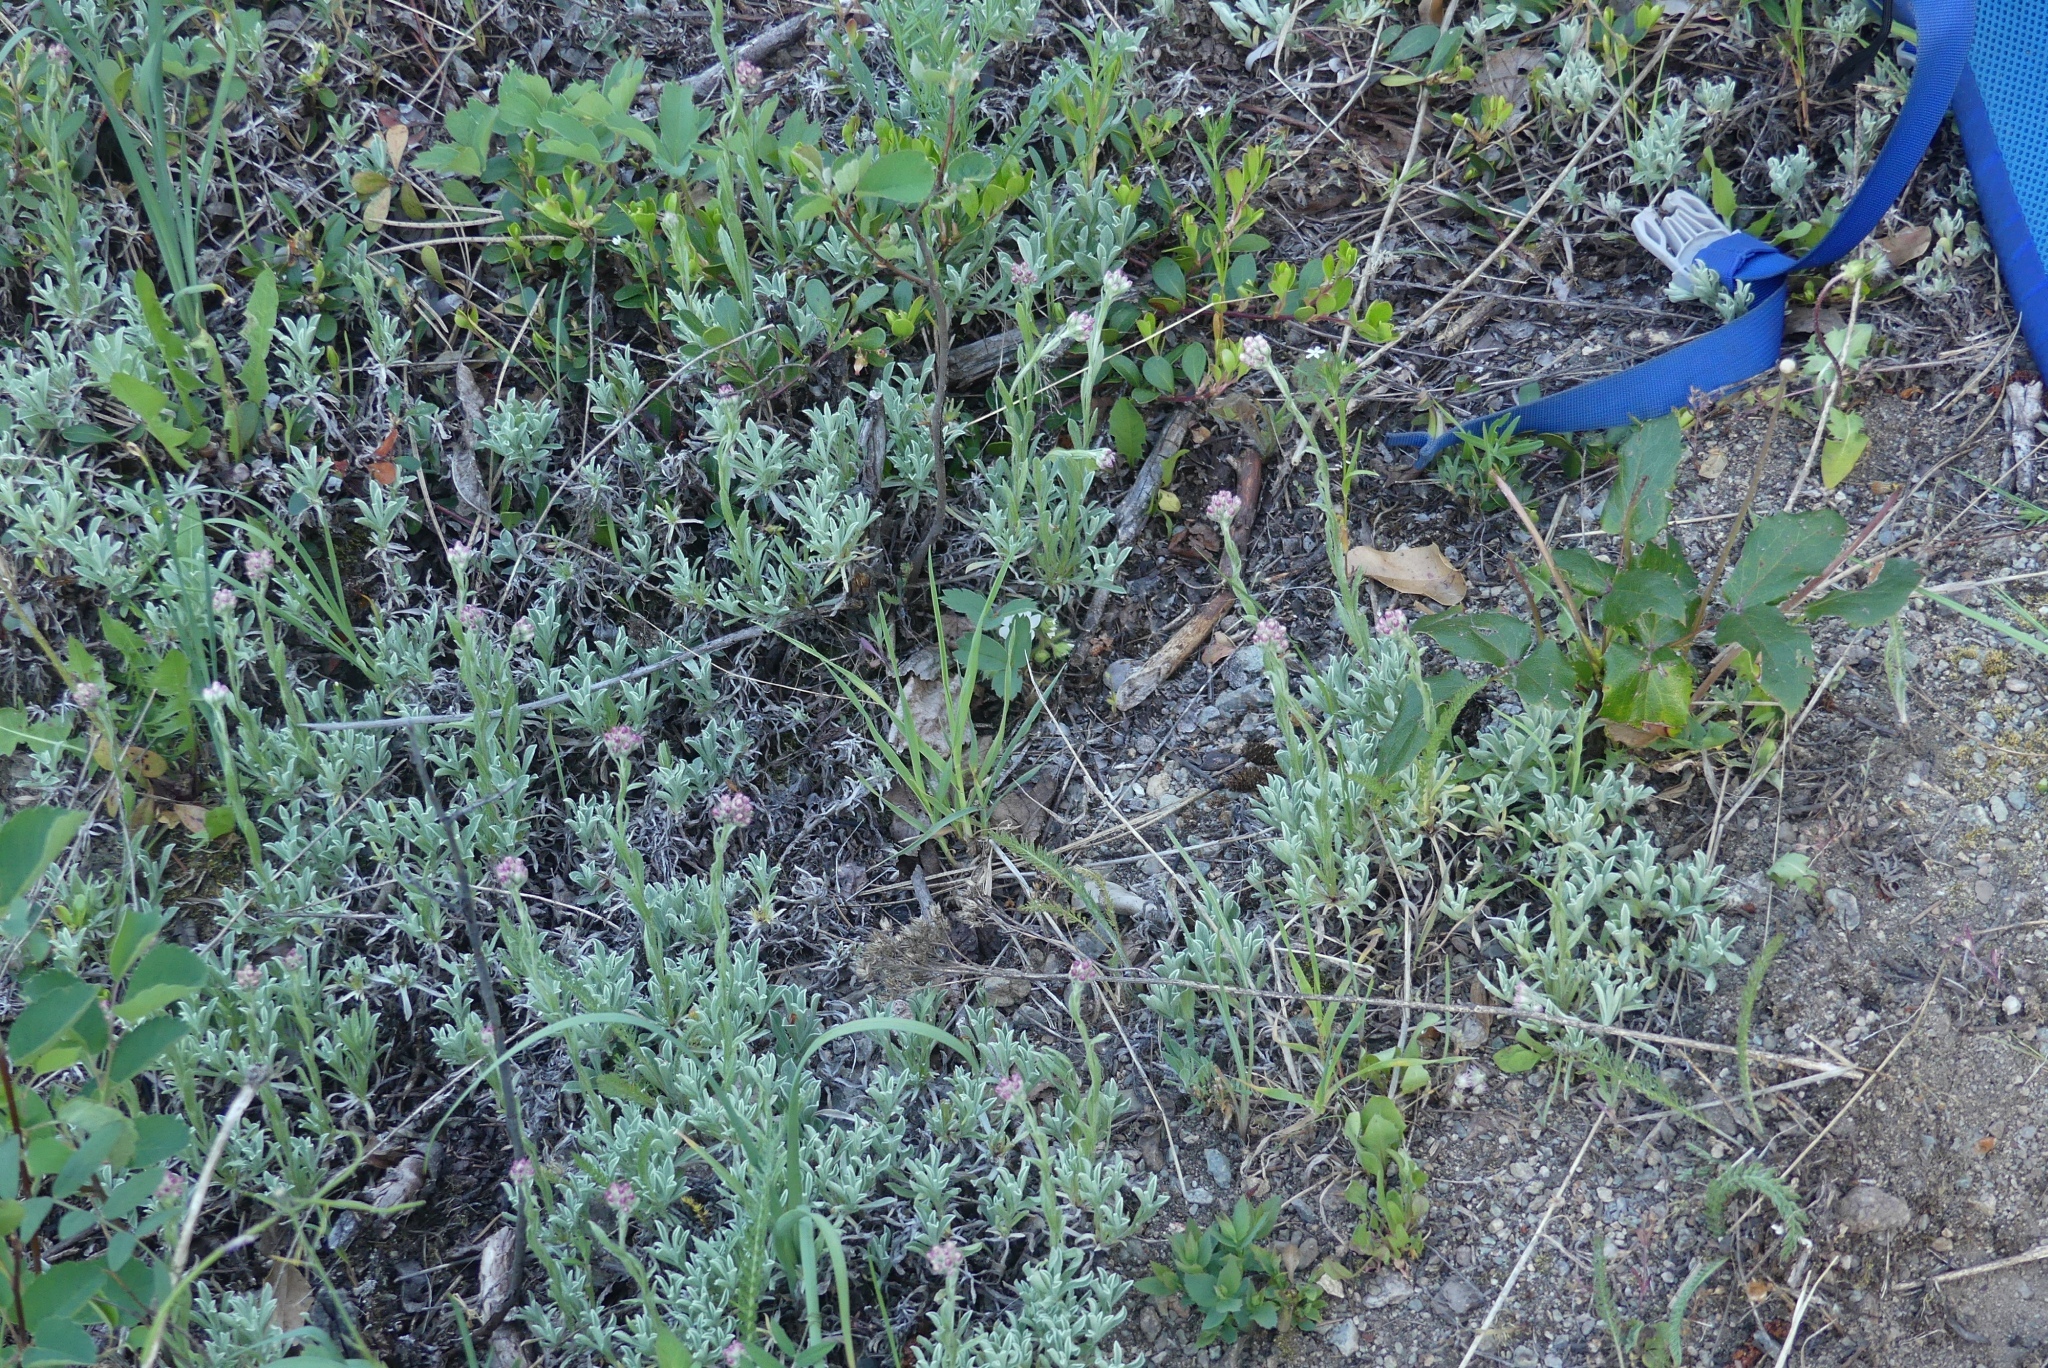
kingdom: Plantae
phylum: Tracheophyta
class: Magnoliopsida
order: Asterales
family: Asteraceae
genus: Antennaria
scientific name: Antennaria rosea
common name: Rosy pussytoes
